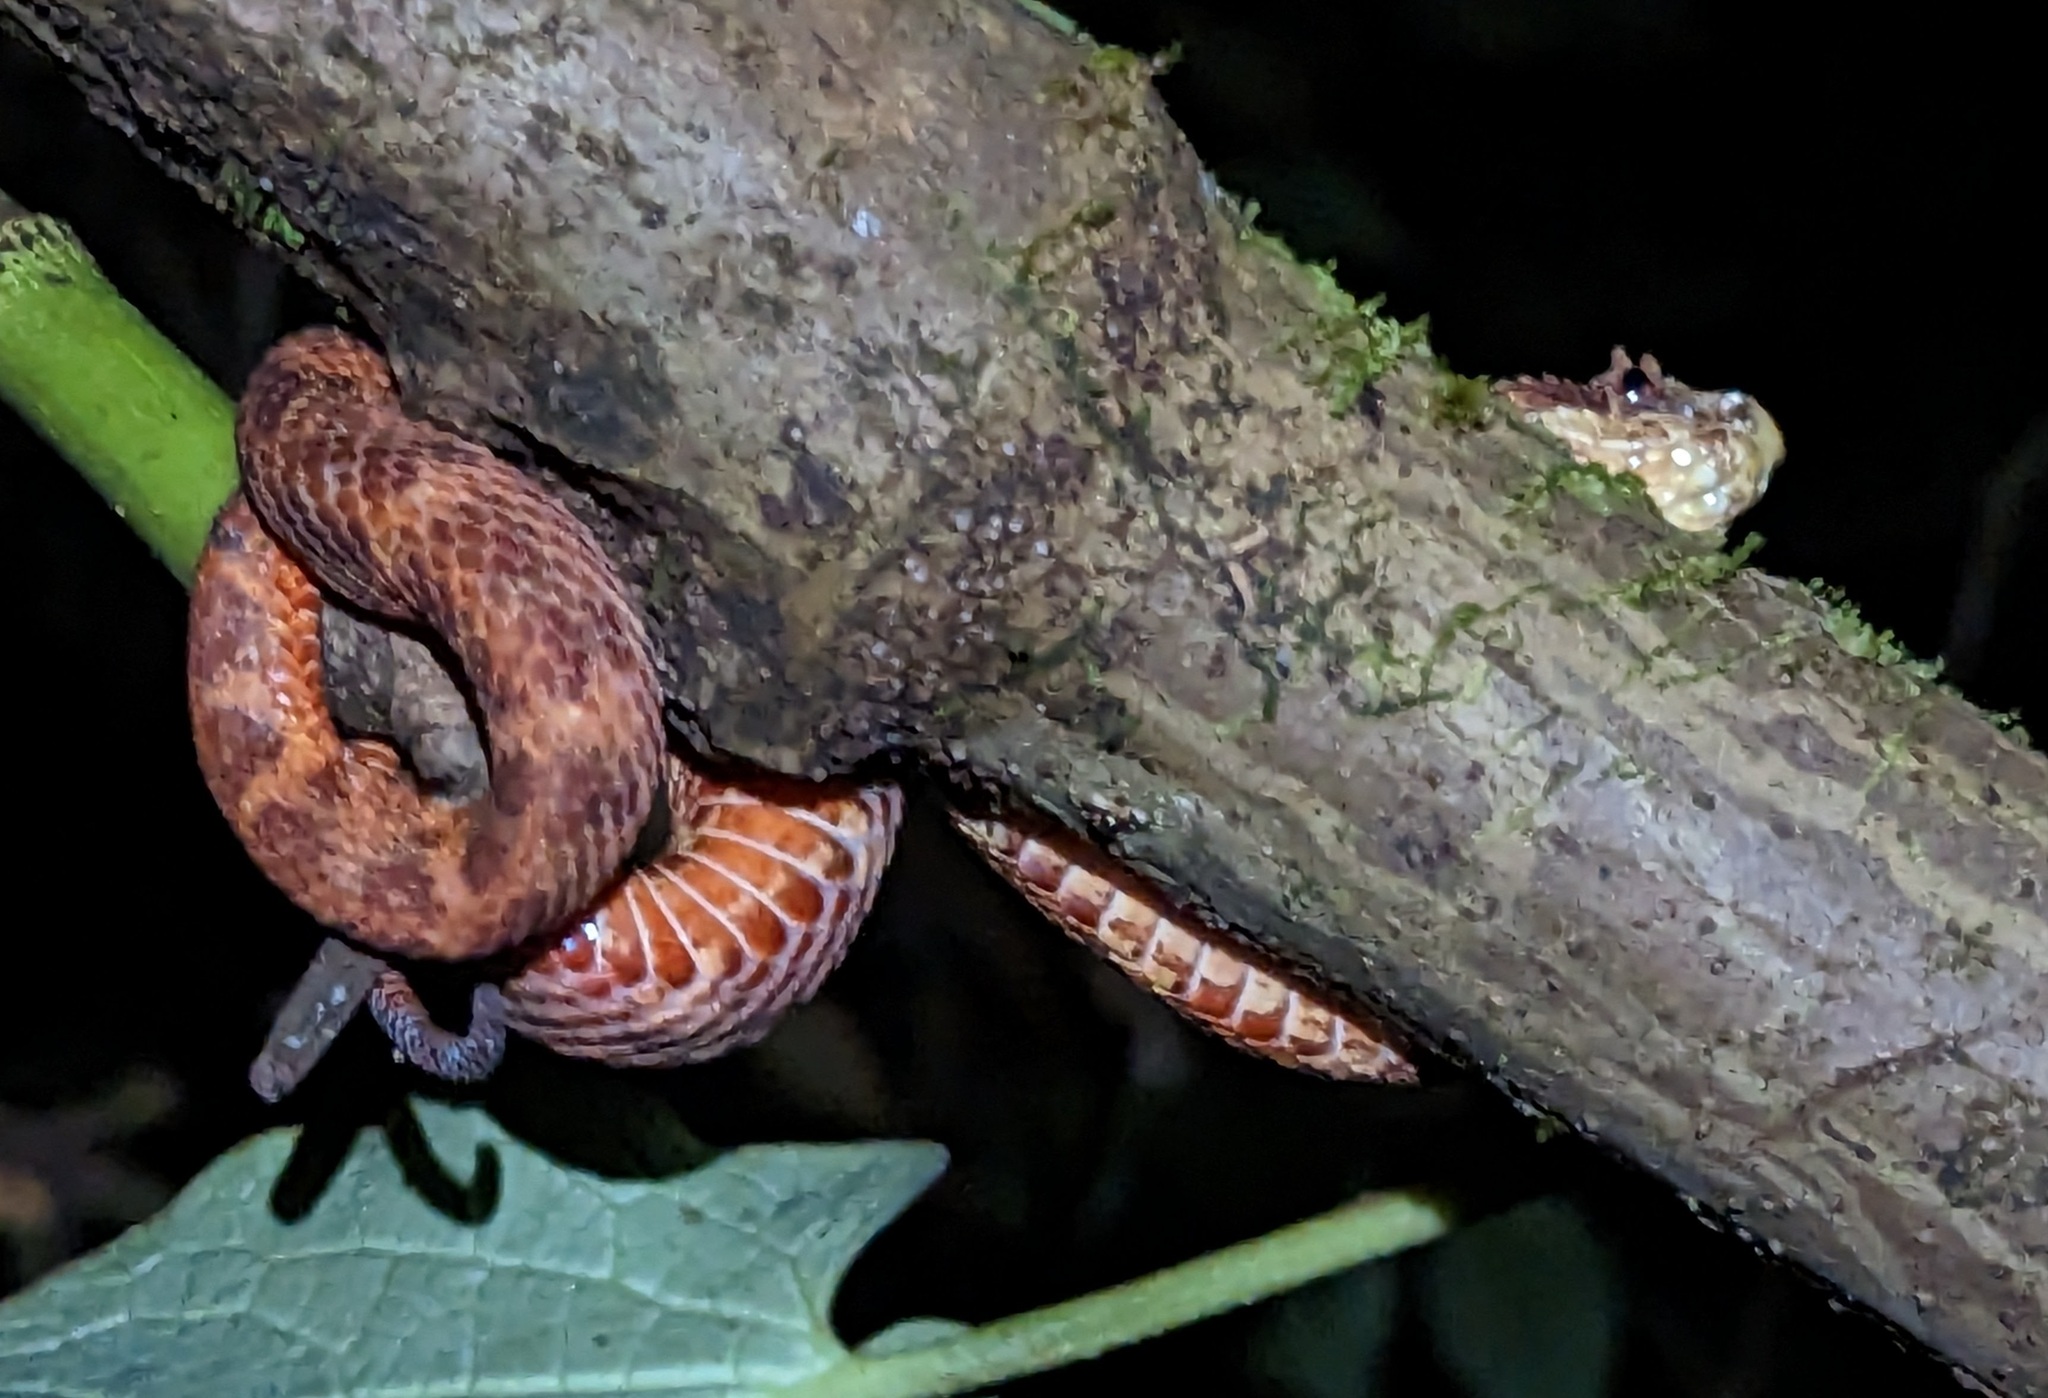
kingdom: Animalia
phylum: Chordata
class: Squamata
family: Viperidae
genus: Bothriechis
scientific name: Bothriechis schlegelii
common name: Eyelash viper
